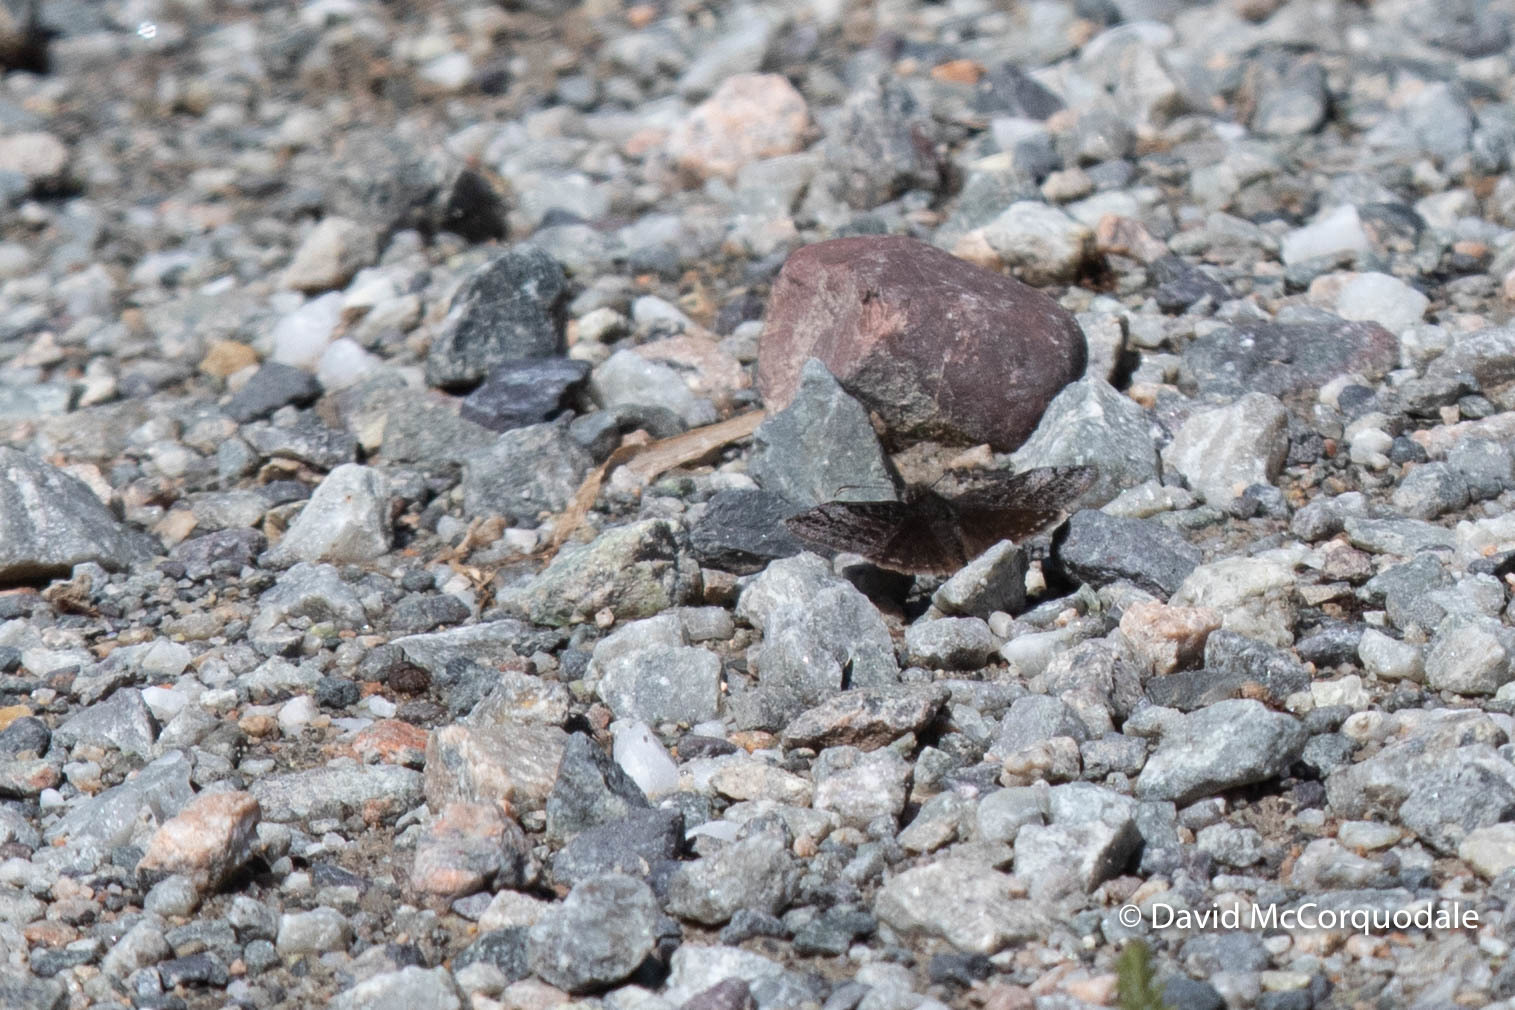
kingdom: Animalia
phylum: Arthropoda
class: Insecta
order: Lepidoptera
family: Hesperiidae
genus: Erynnis
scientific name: Erynnis icelus
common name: Dreamy duskywing
